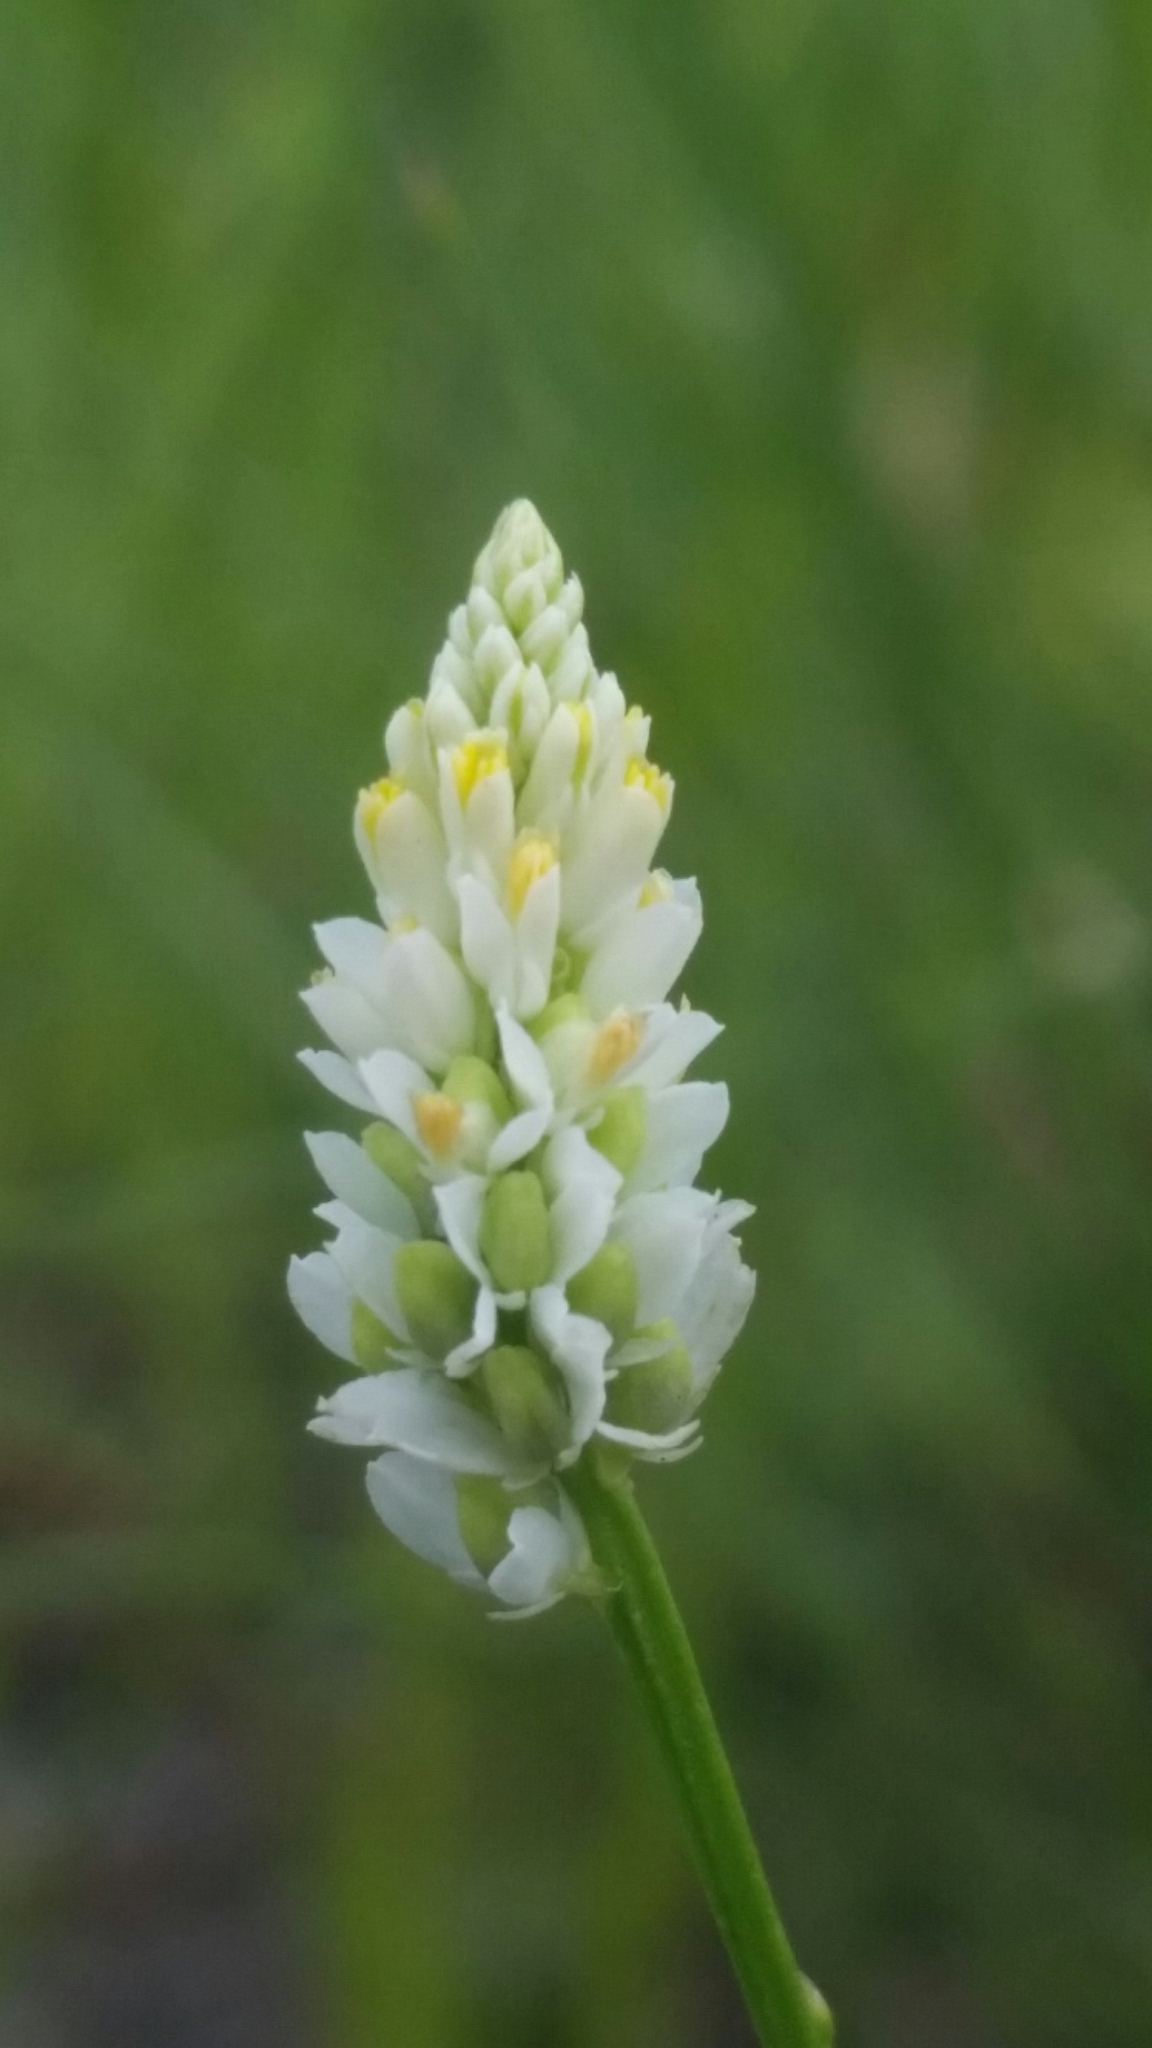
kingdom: Plantae
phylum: Tracheophyta
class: Magnoliopsida
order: Fabales
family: Polygalaceae
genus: Polygala
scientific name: Polygala setacea
